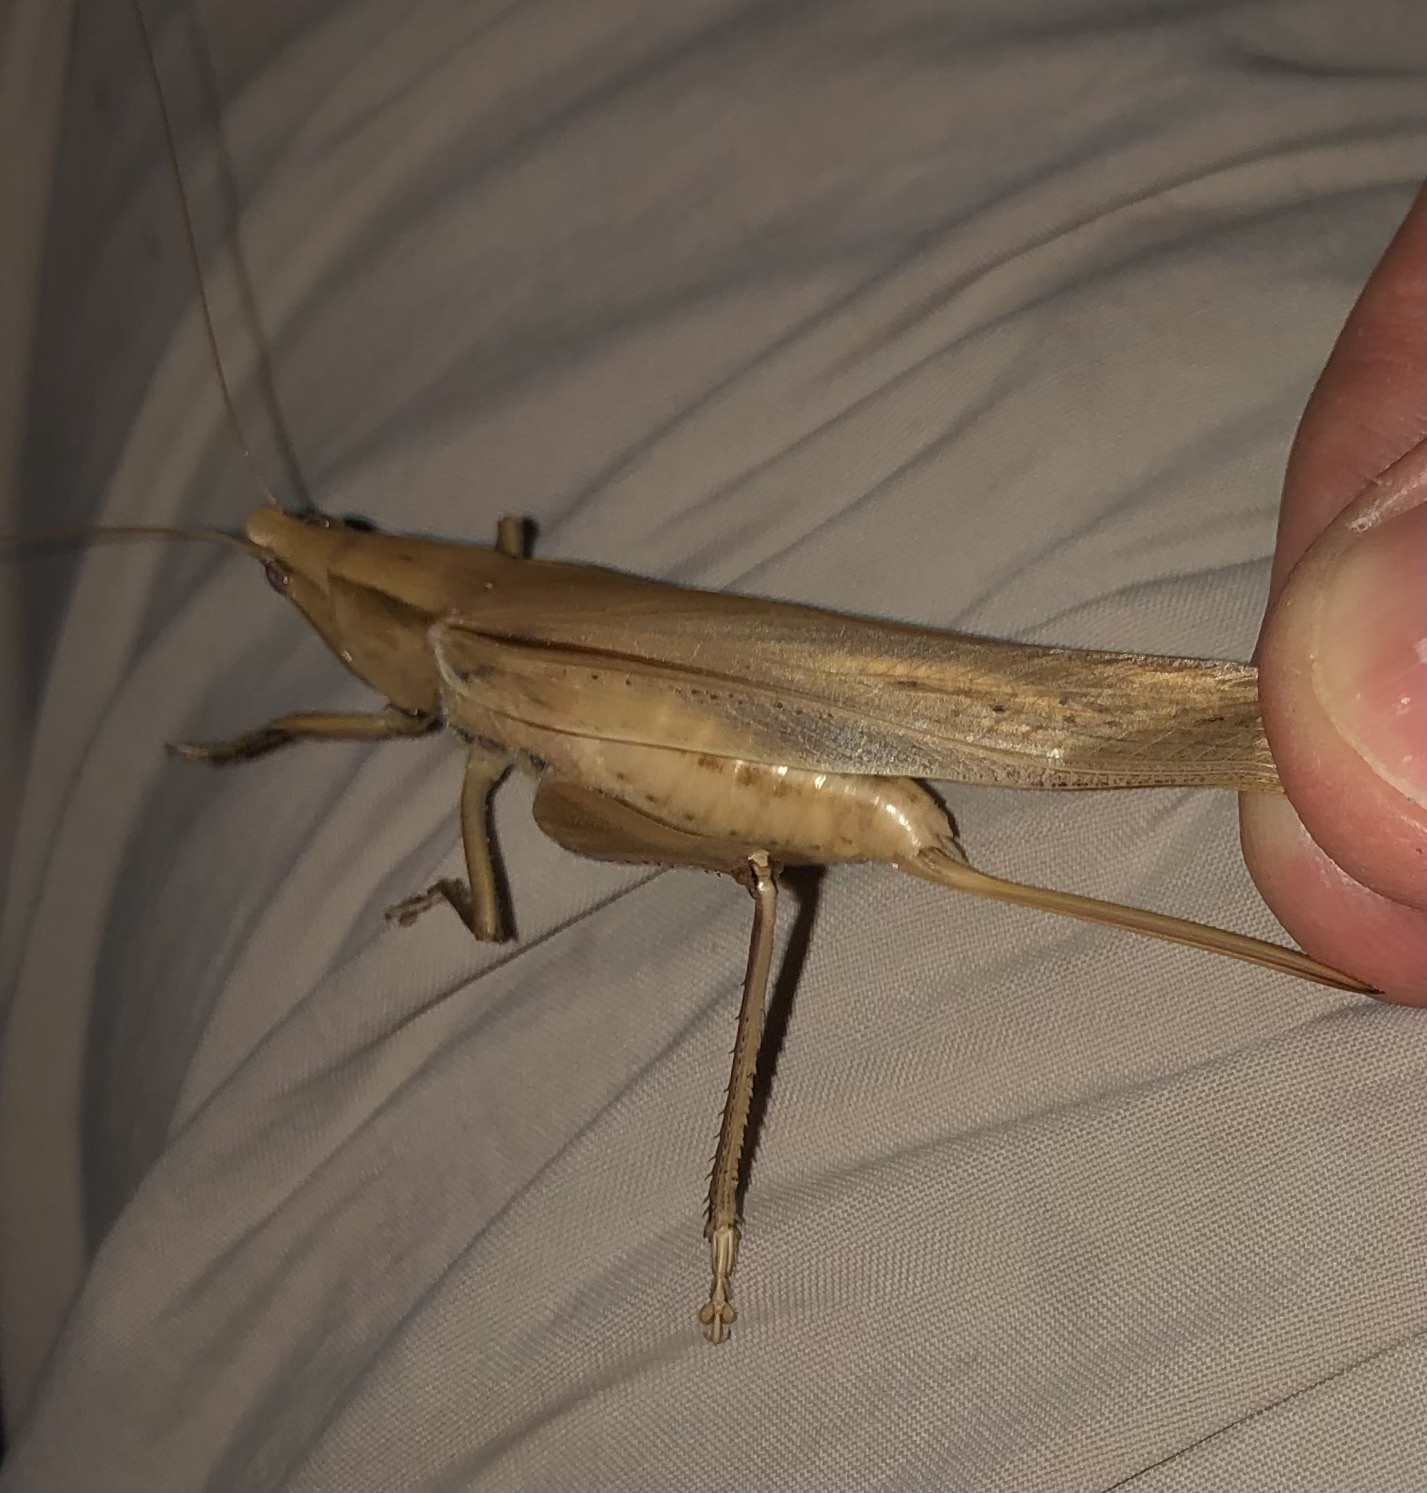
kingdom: Animalia
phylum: Arthropoda
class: Insecta
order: Orthoptera
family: Tettigoniidae
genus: Neoconocephalus
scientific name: Neoconocephalus triops
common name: Broad-tipped conehead
